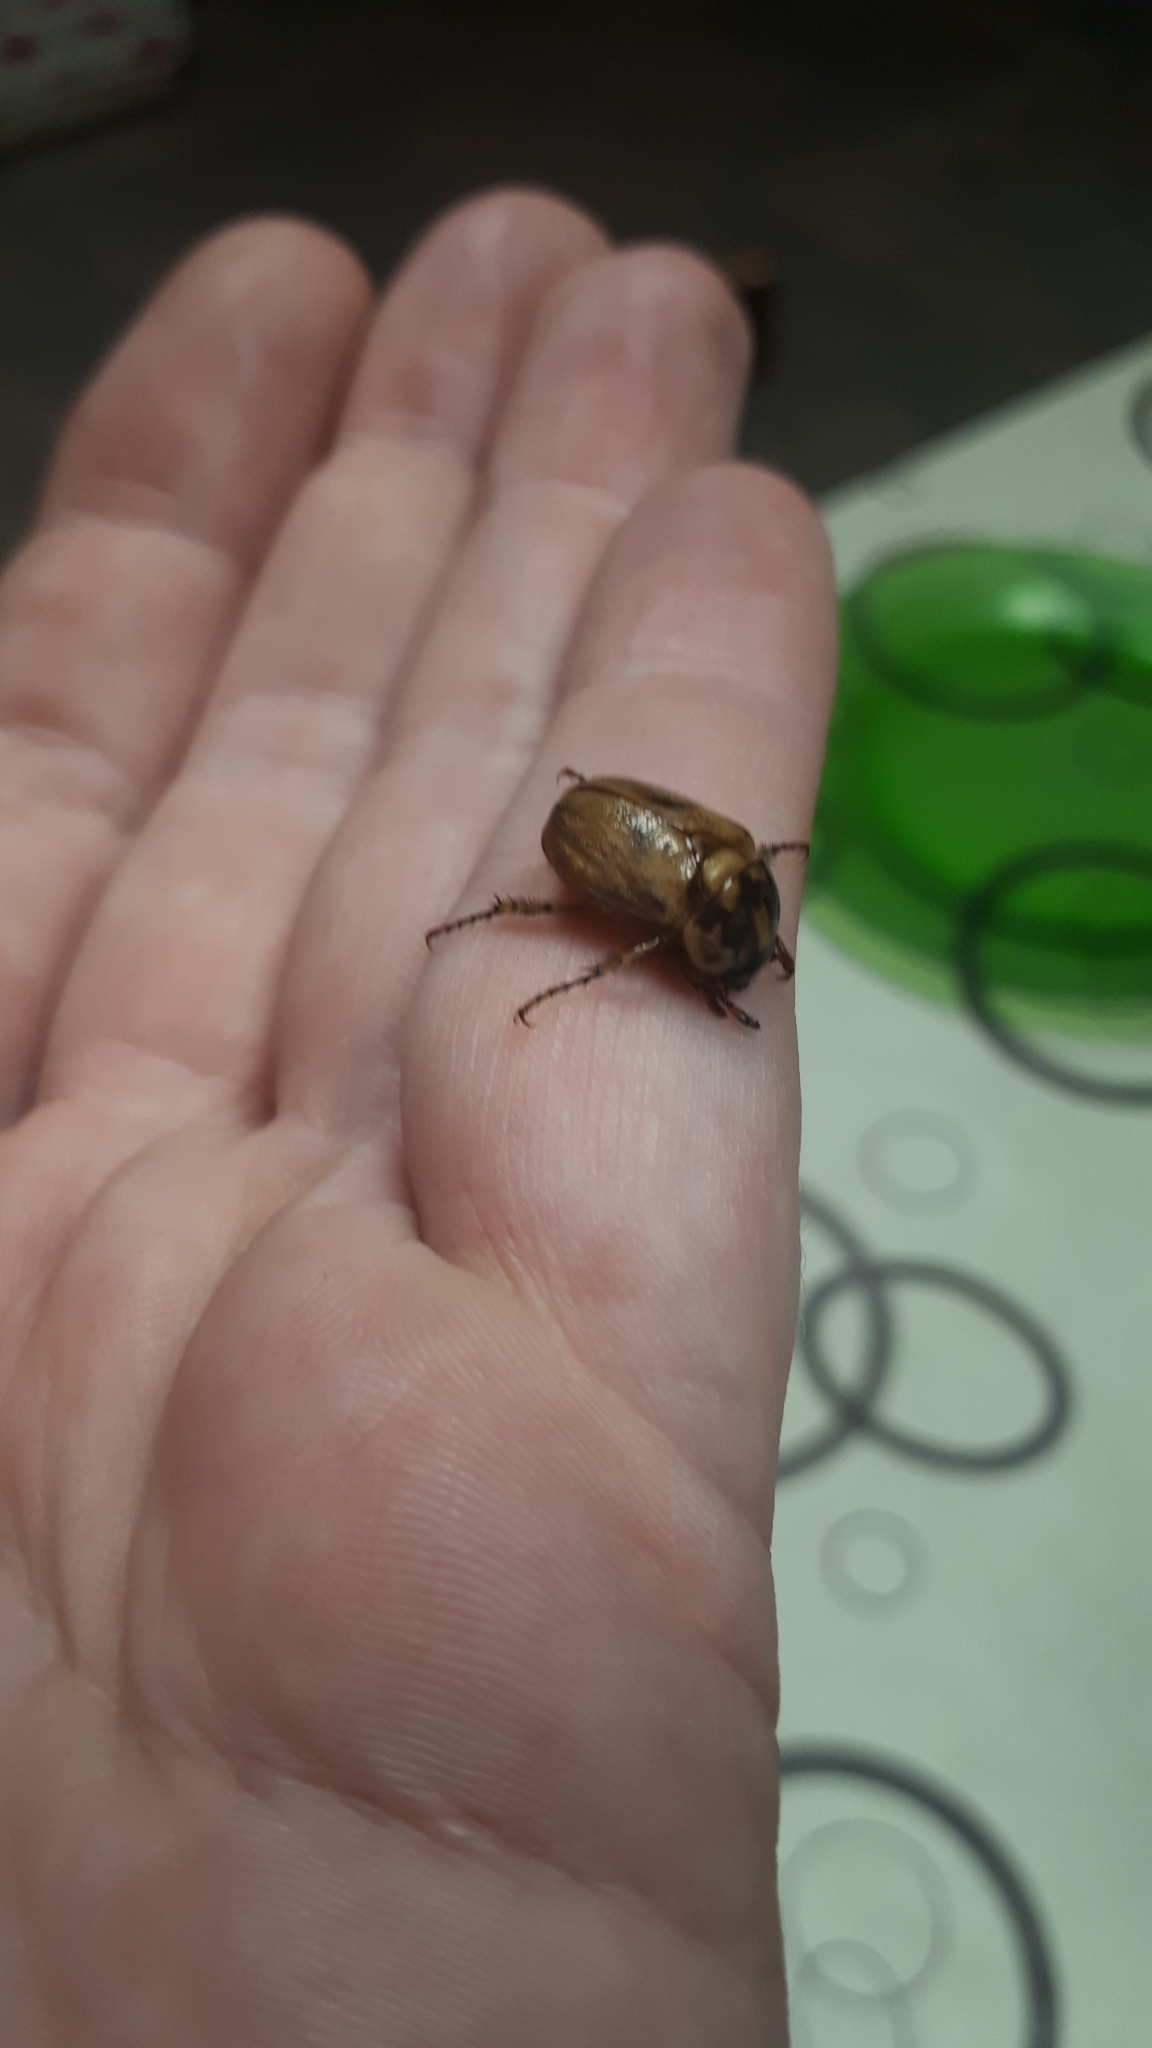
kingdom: Animalia
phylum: Arthropoda
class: Insecta
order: Coleoptera
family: Scarabaeidae
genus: Cyclocephala
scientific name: Cyclocephala signaticollis
